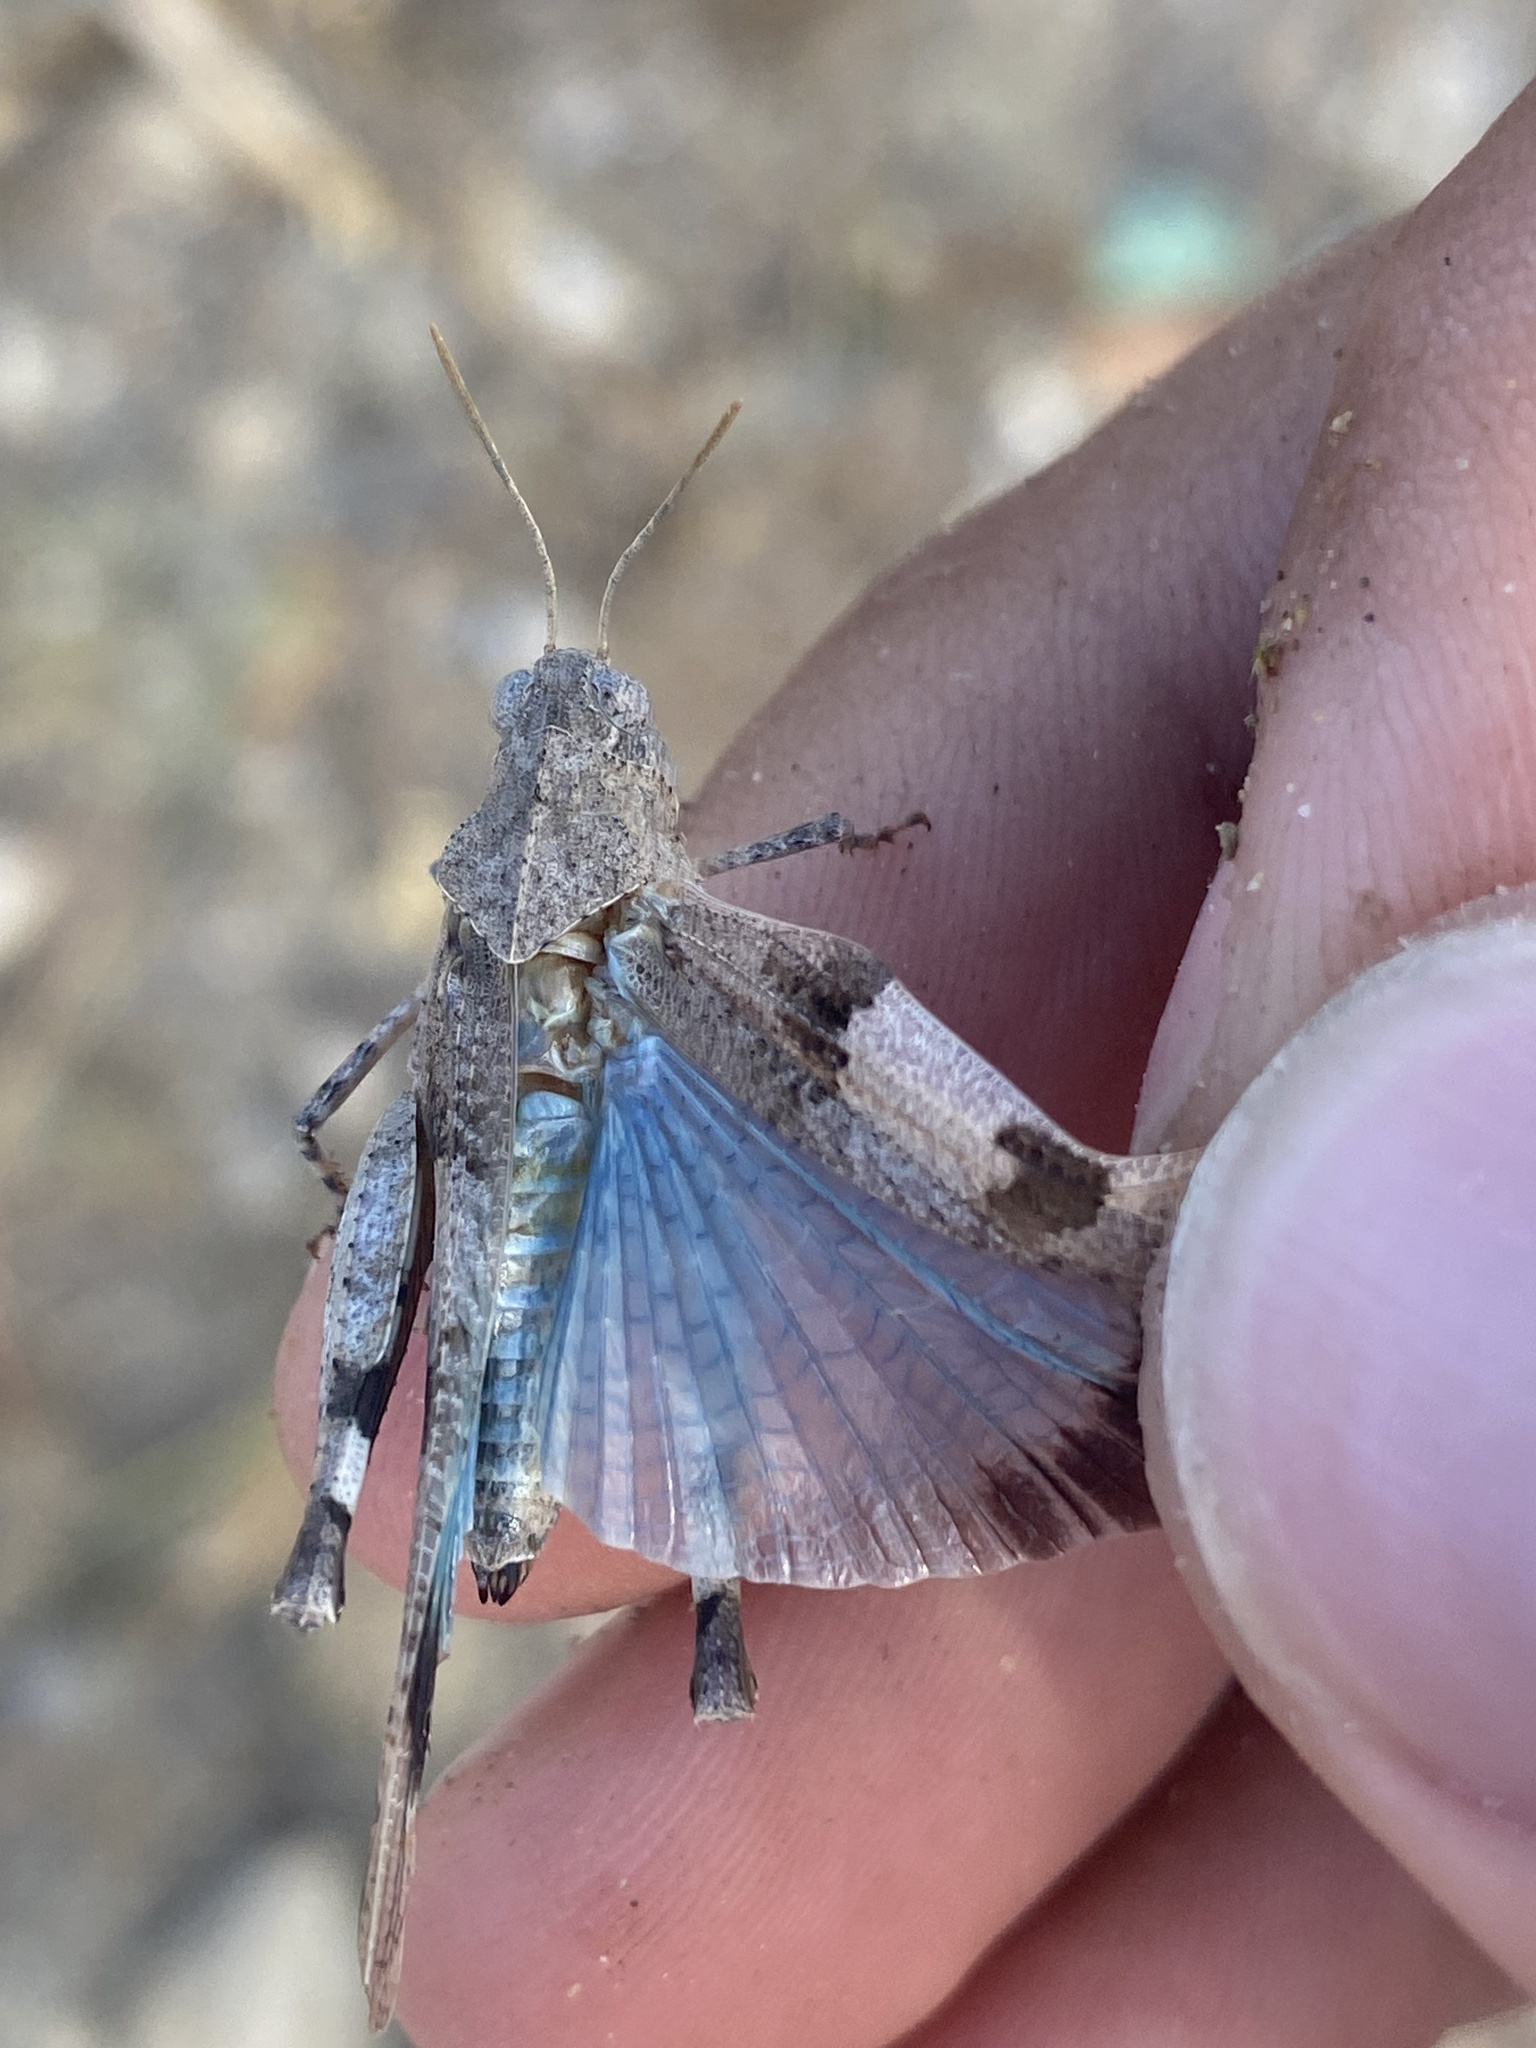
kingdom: Animalia
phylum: Arthropoda
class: Insecta
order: Orthoptera
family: Acrididae
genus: Oedipoda
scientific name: Oedipoda caerulescens
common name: Blue-winged grasshopper
